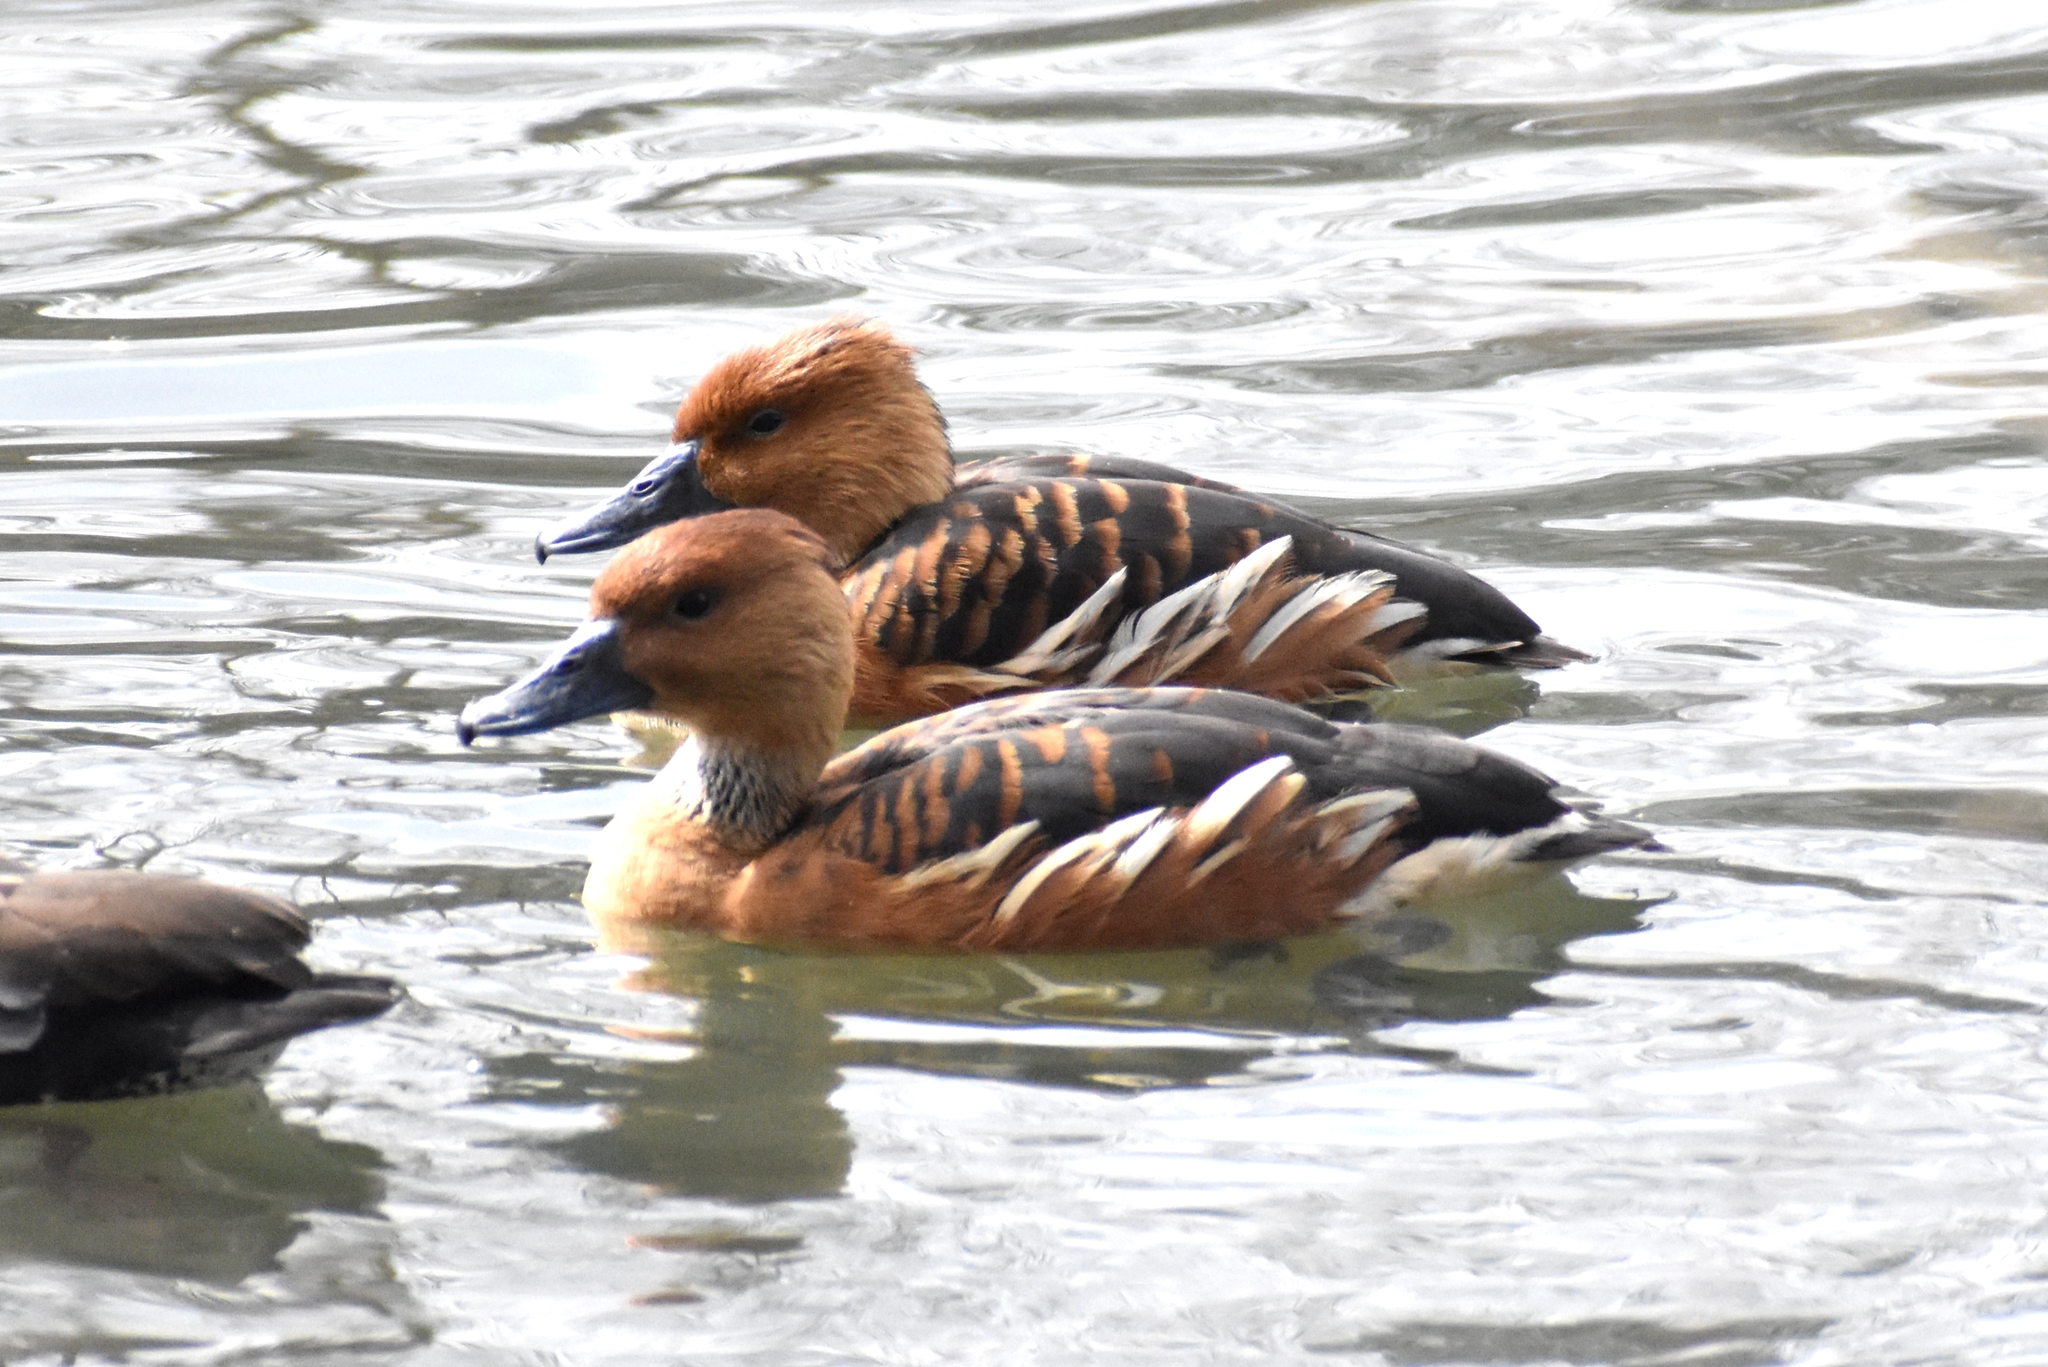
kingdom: Animalia
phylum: Chordata
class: Aves
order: Anseriformes
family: Anatidae
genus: Dendrocygna
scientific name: Dendrocygna bicolor
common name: Fulvous whistling duck
